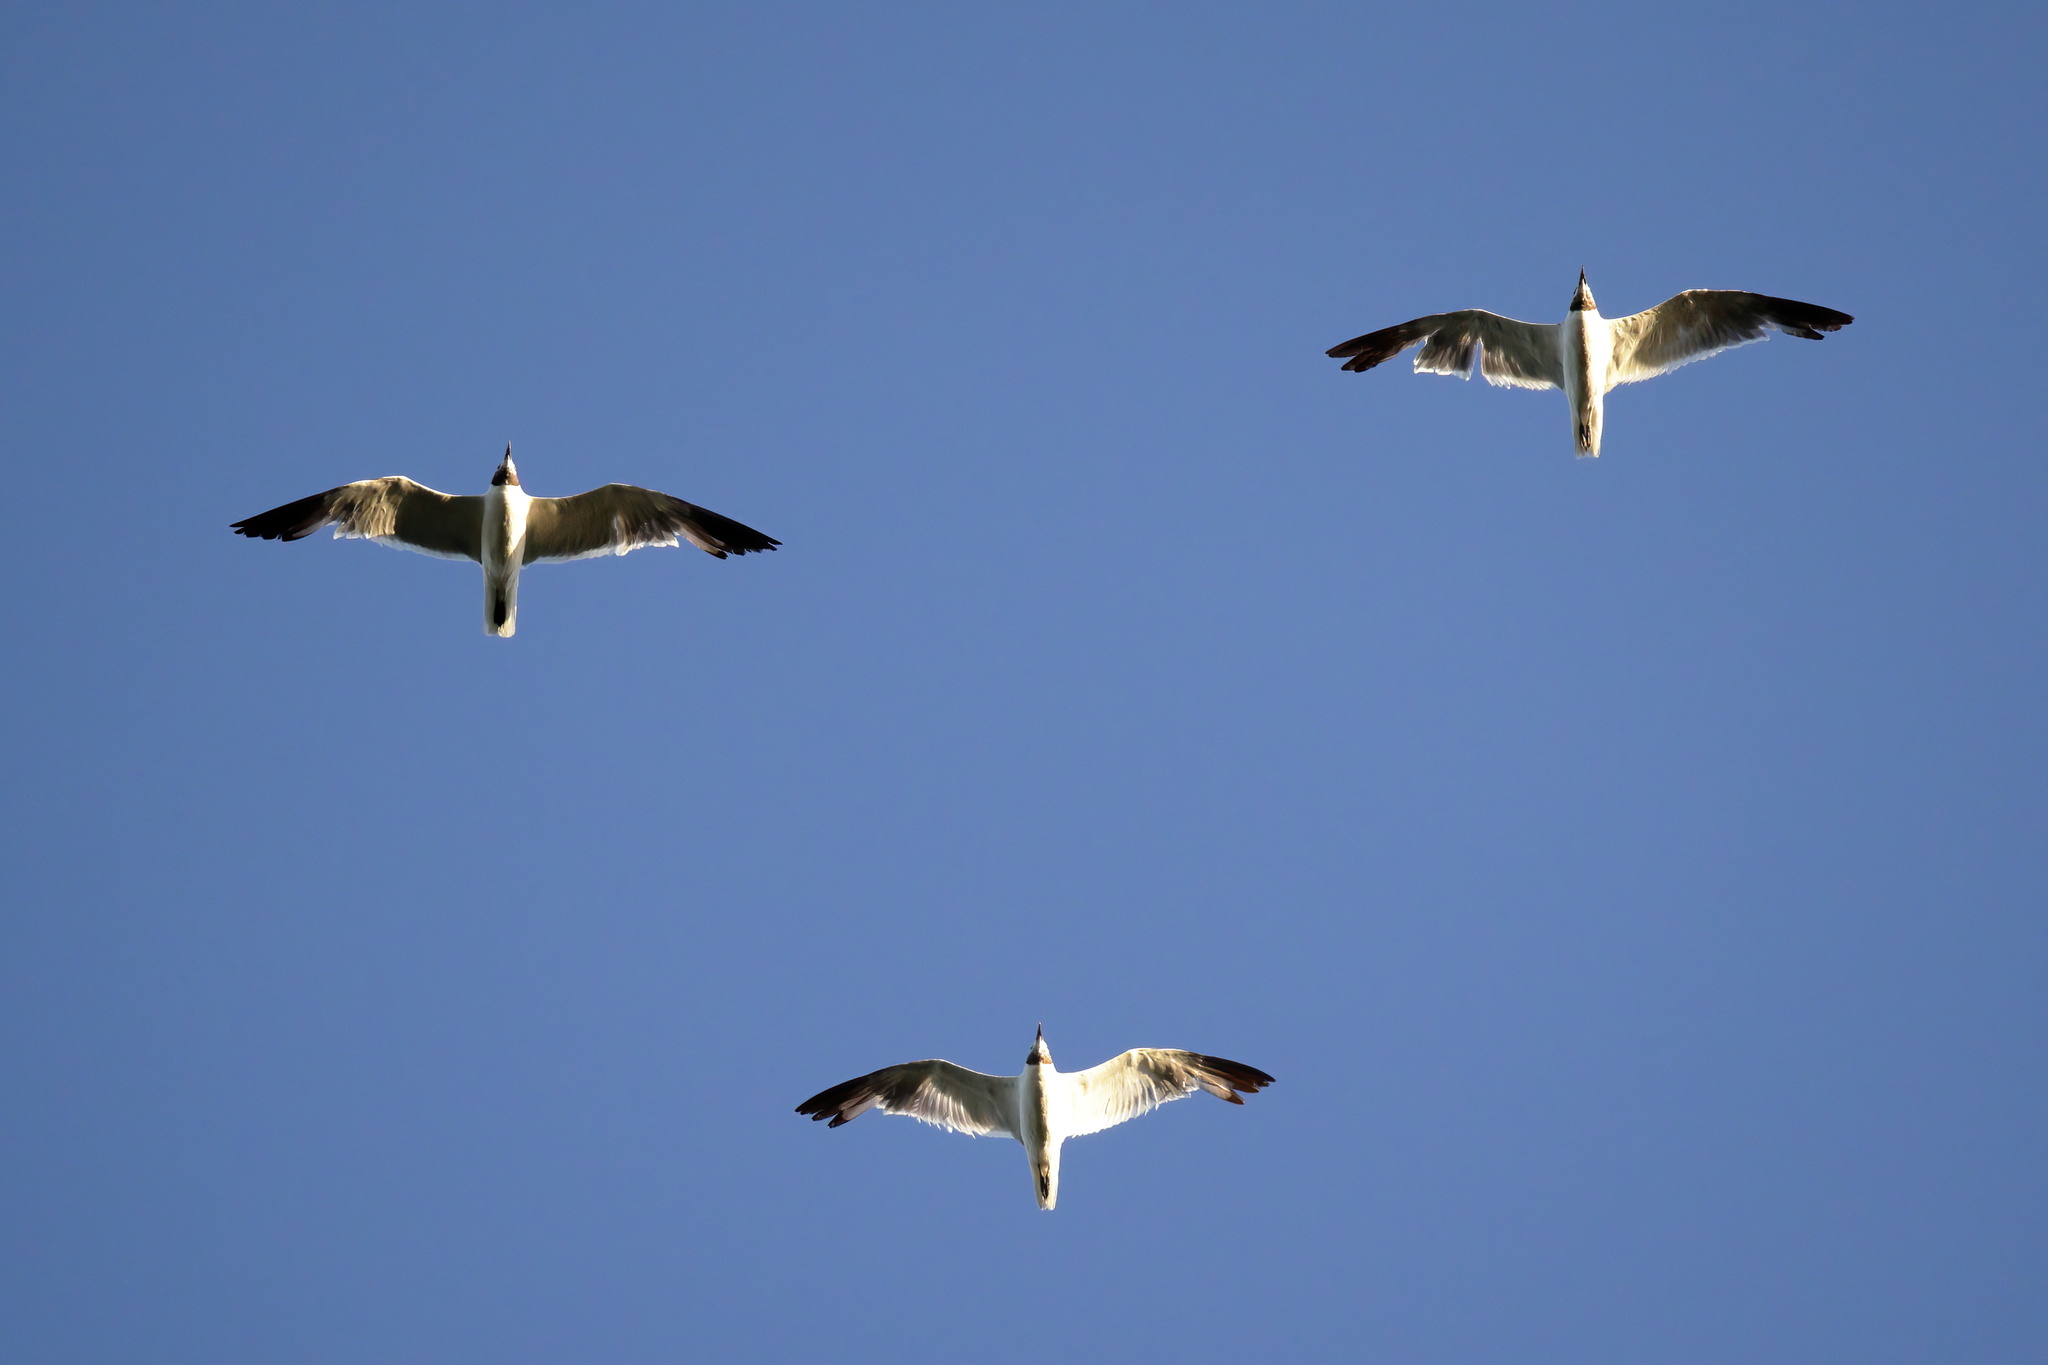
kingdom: Animalia
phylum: Chordata
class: Aves
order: Charadriiformes
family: Laridae
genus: Leucophaeus
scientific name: Leucophaeus atricilla
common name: Laughing gull
